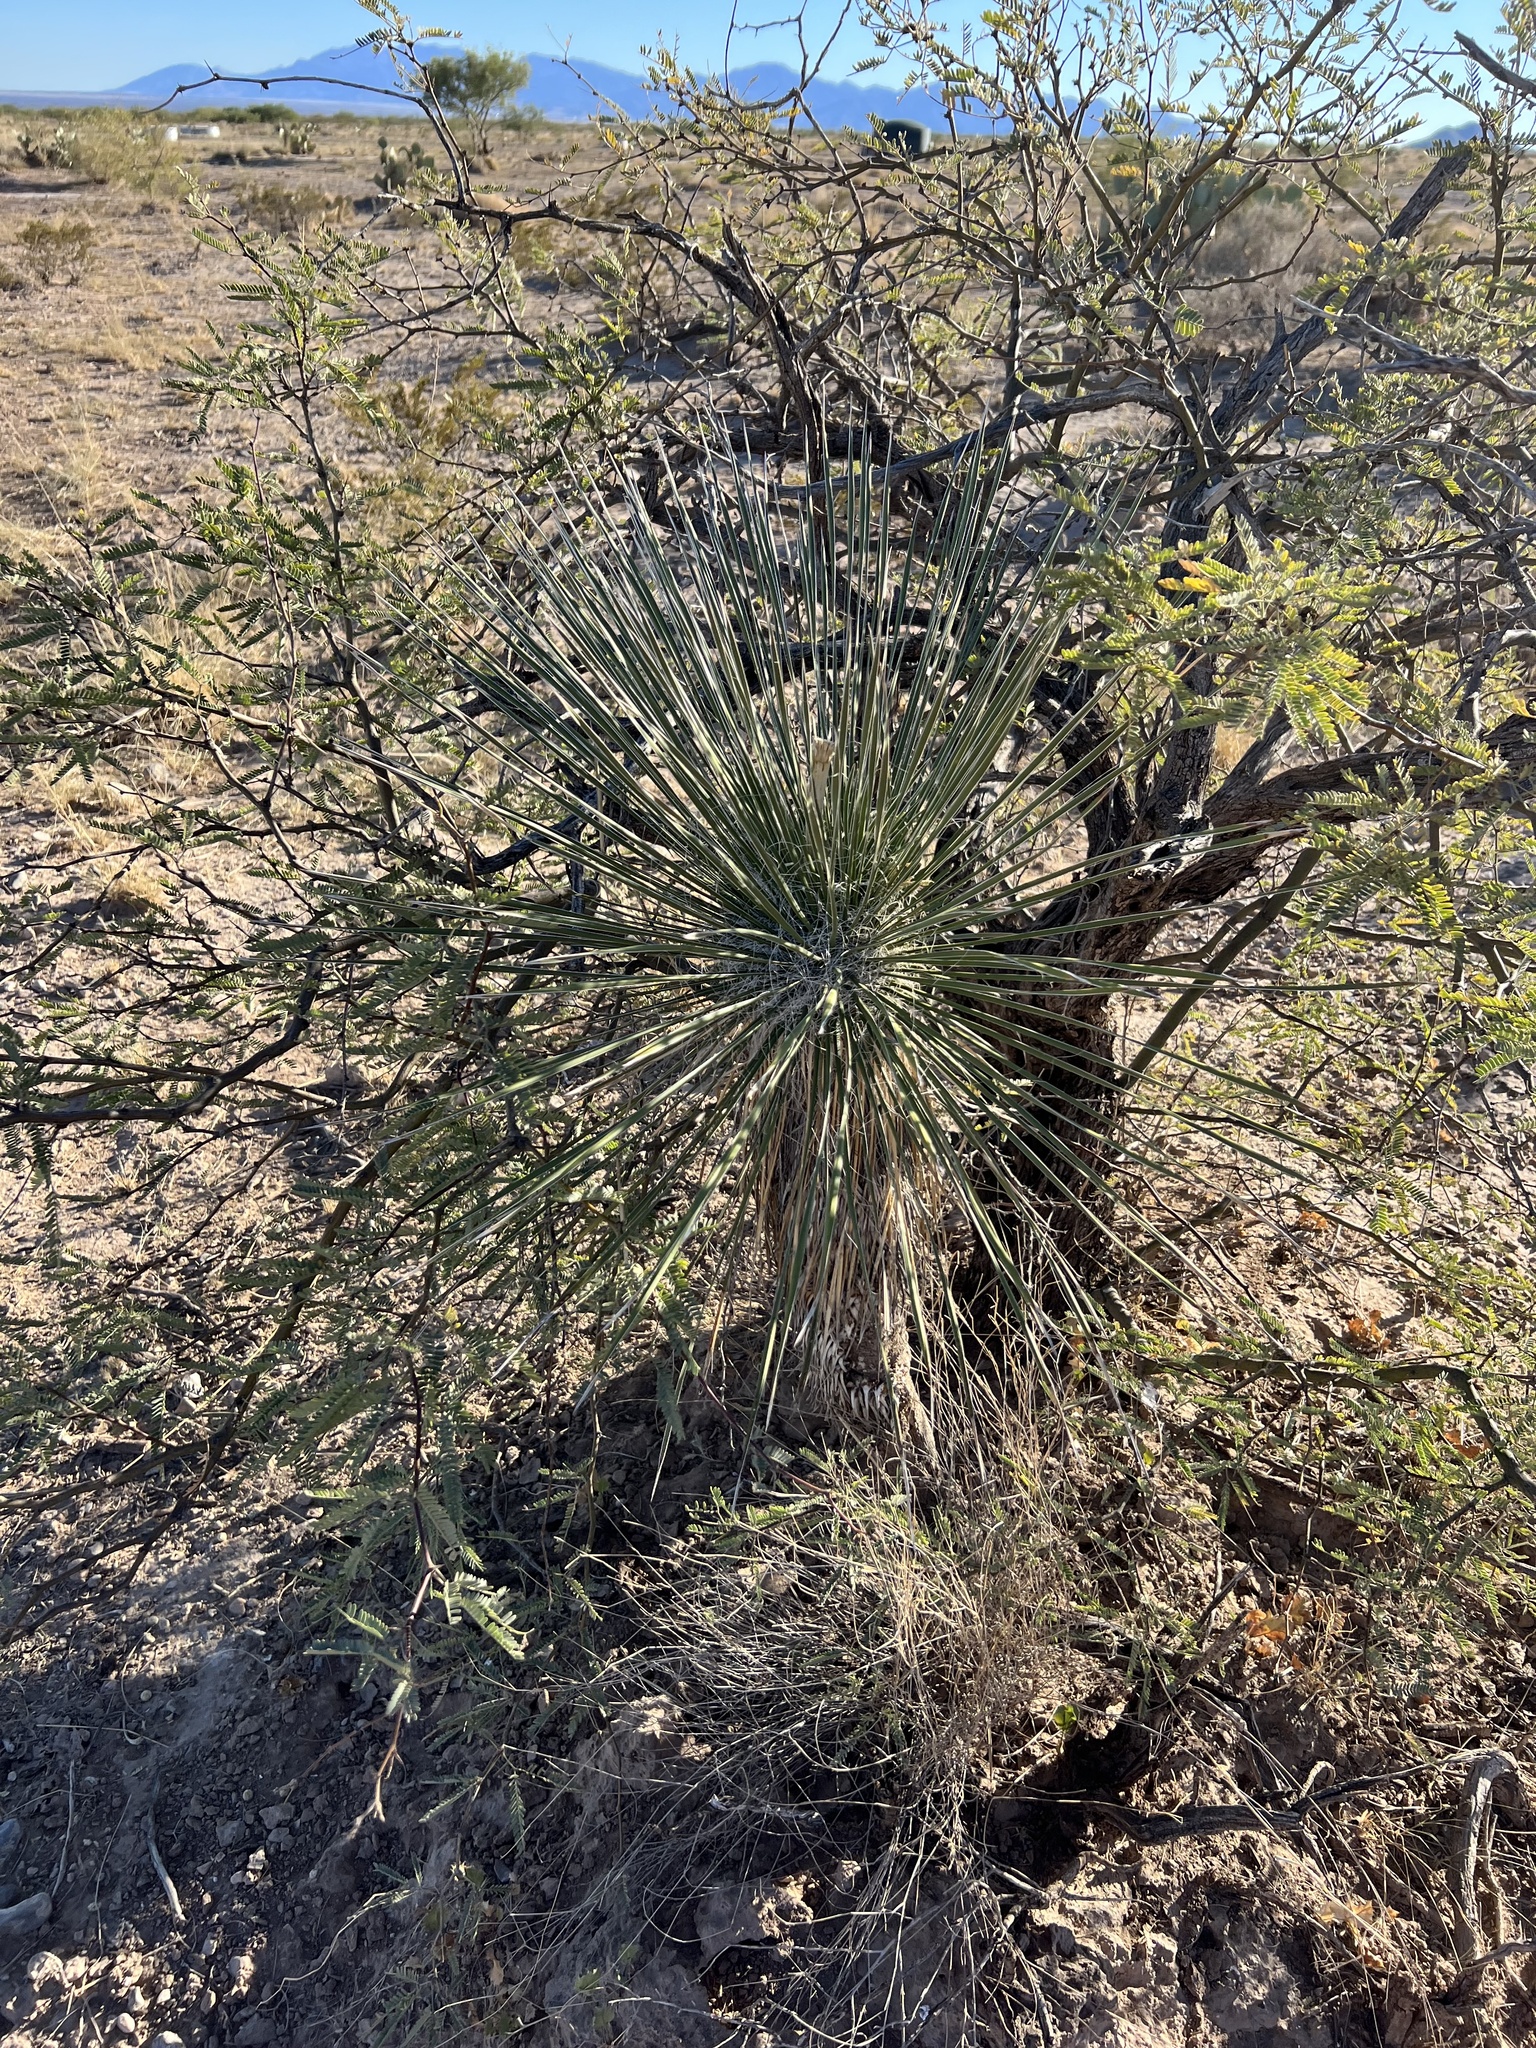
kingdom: Plantae
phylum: Tracheophyta
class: Liliopsida
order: Asparagales
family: Asparagaceae
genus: Yucca
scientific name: Yucca elata
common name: Palmella
